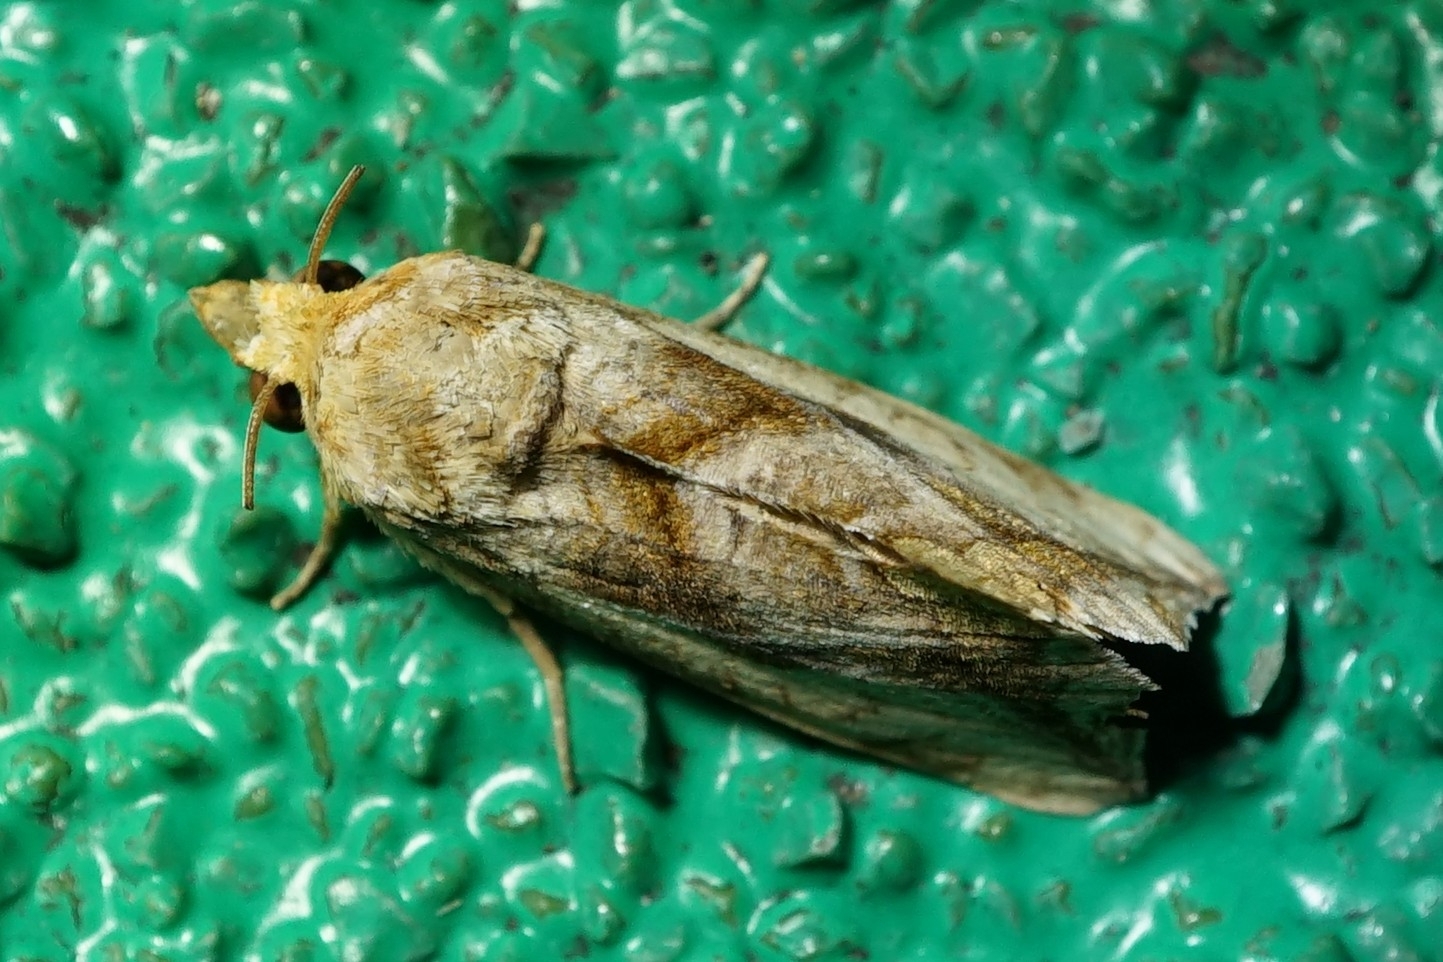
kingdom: Animalia
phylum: Arthropoda
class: Insecta
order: Lepidoptera
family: Erebidae
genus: Oraesia
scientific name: Oraesia emarginata
